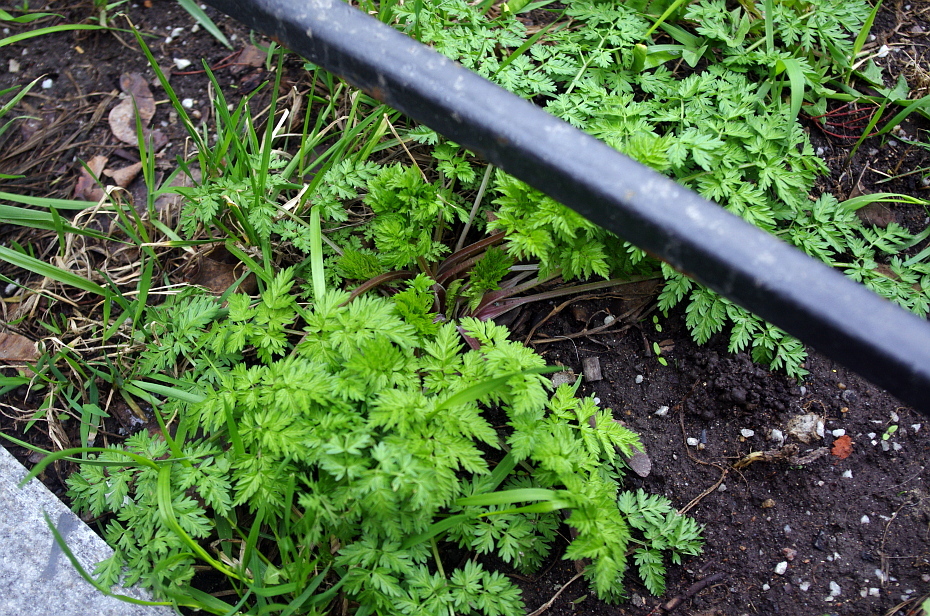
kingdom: Plantae
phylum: Tracheophyta
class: Magnoliopsida
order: Apiales
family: Apiaceae
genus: Anthriscus
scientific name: Anthriscus sylvestris
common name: Cow parsley
